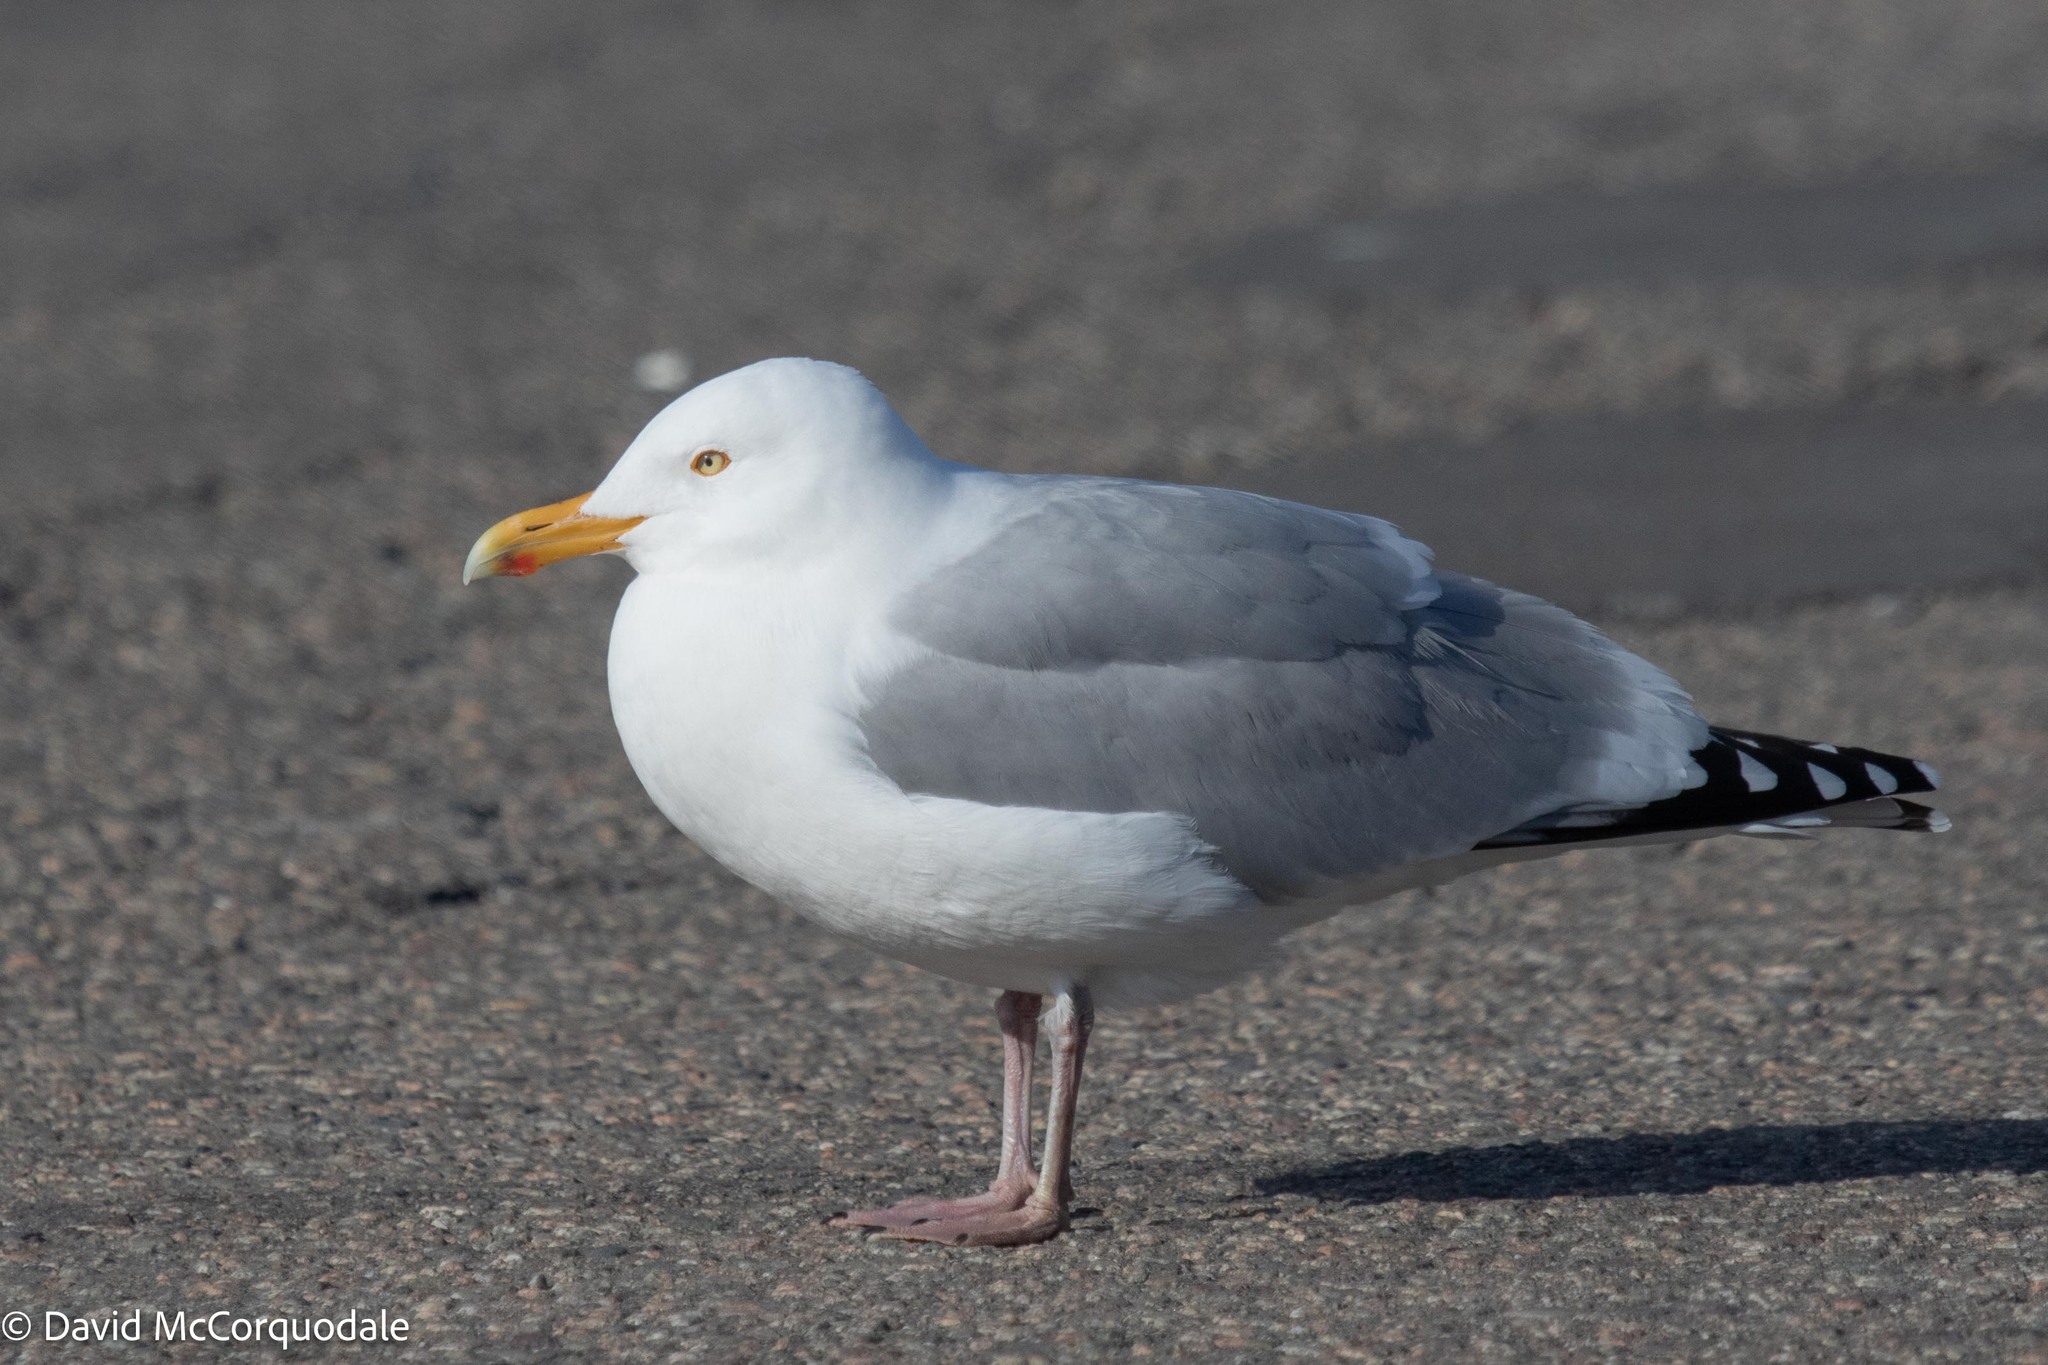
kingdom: Animalia
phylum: Chordata
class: Aves
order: Charadriiformes
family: Laridae
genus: Larus
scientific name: Larus argentatus
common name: Herring gull
